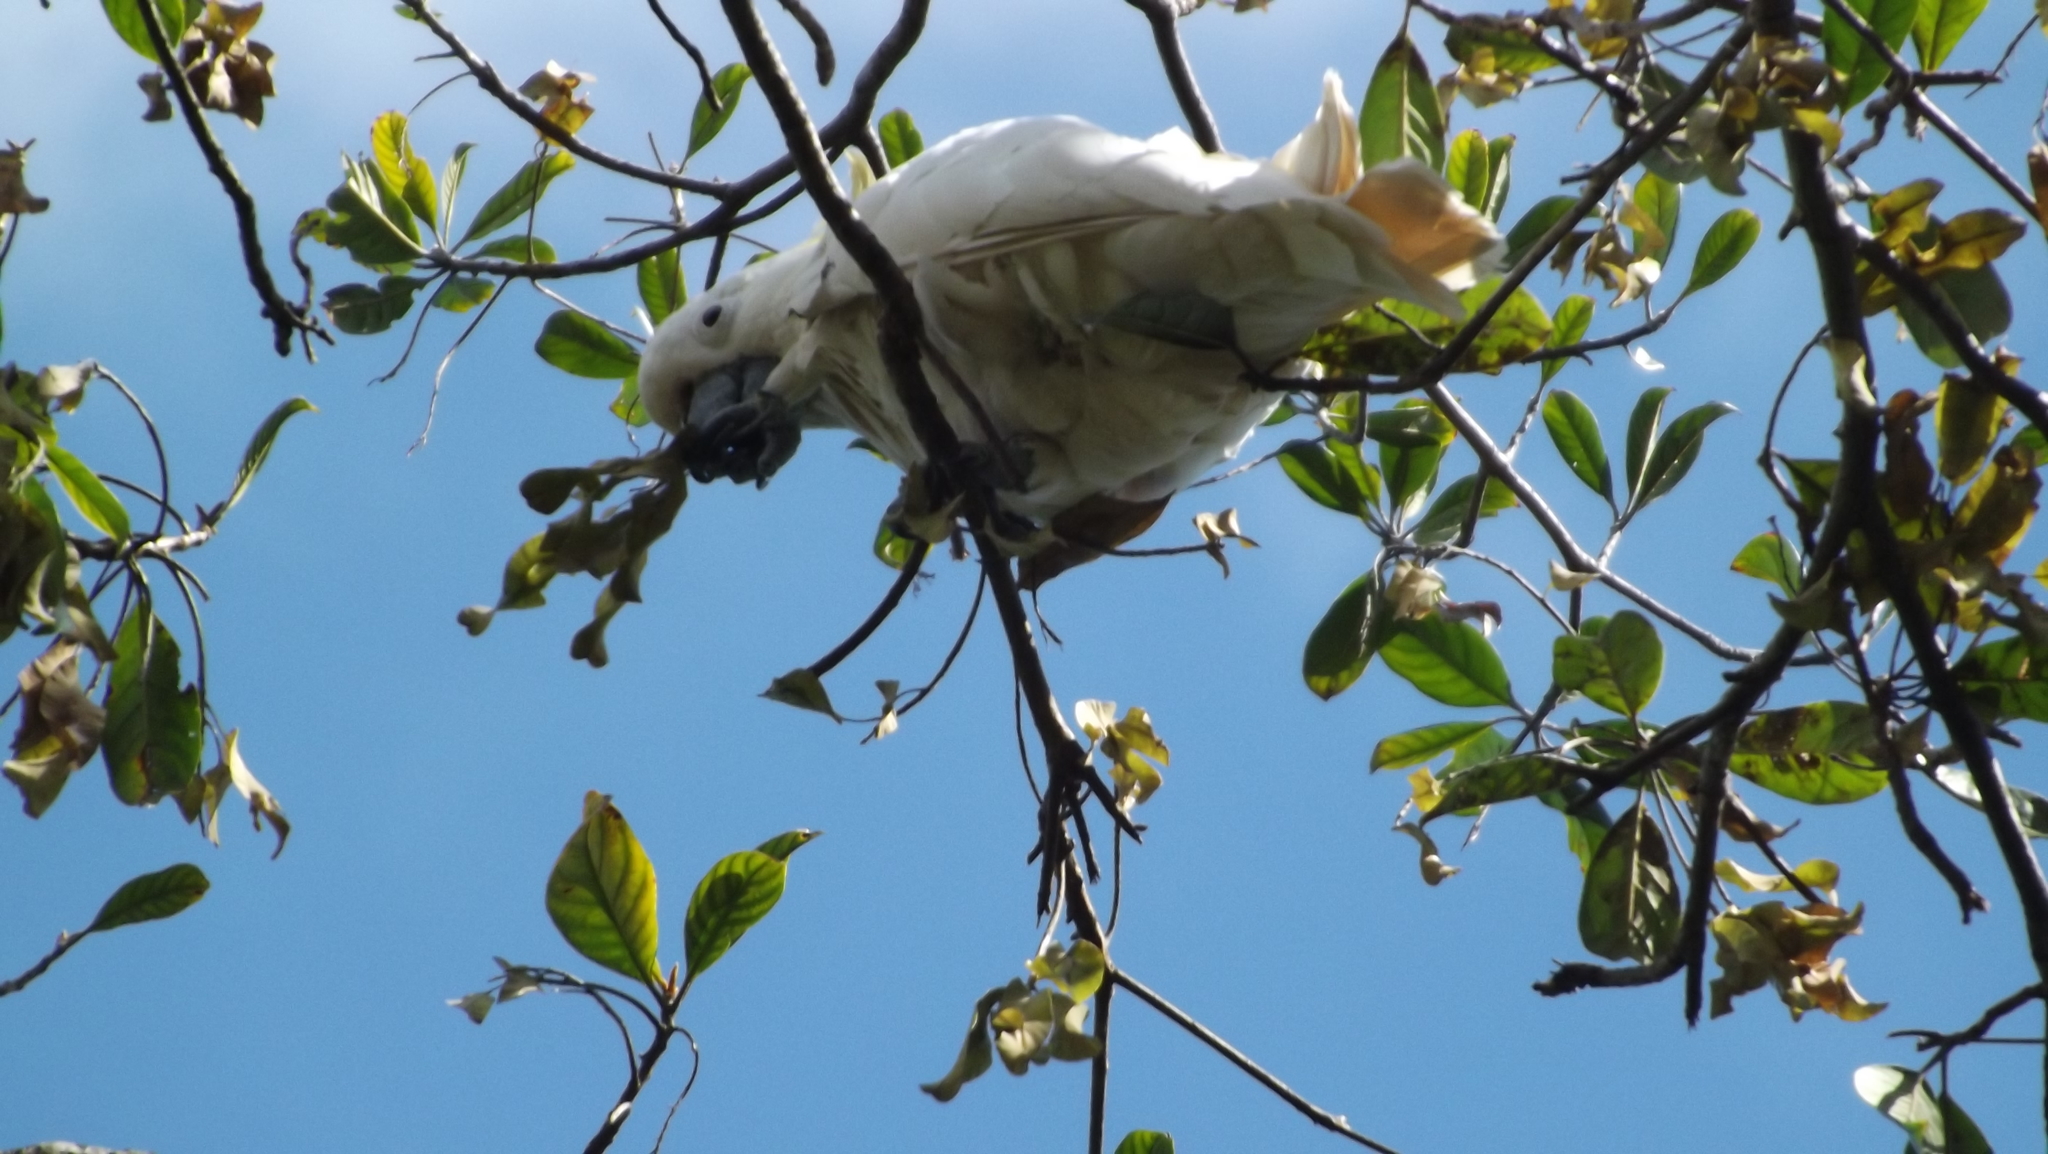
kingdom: Animalia
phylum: Chordata
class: Aves
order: Psittaciformes
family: Psittacidae
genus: Cacatua
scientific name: Cacatua galerita
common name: Sulphur-crested cockatoo
